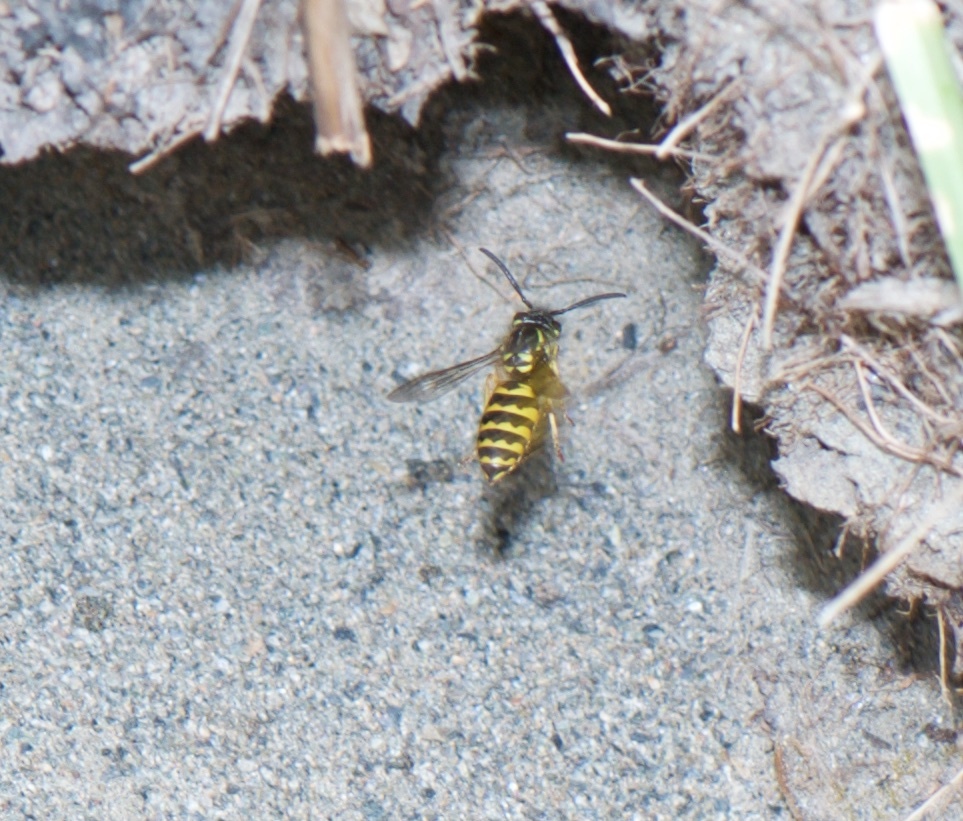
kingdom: Animalia
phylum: Arthropoda
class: Insecta
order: Hymenoptera
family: Vespidae
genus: Vespula
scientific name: Vespula alascensis
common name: Alaska yellowjacket
